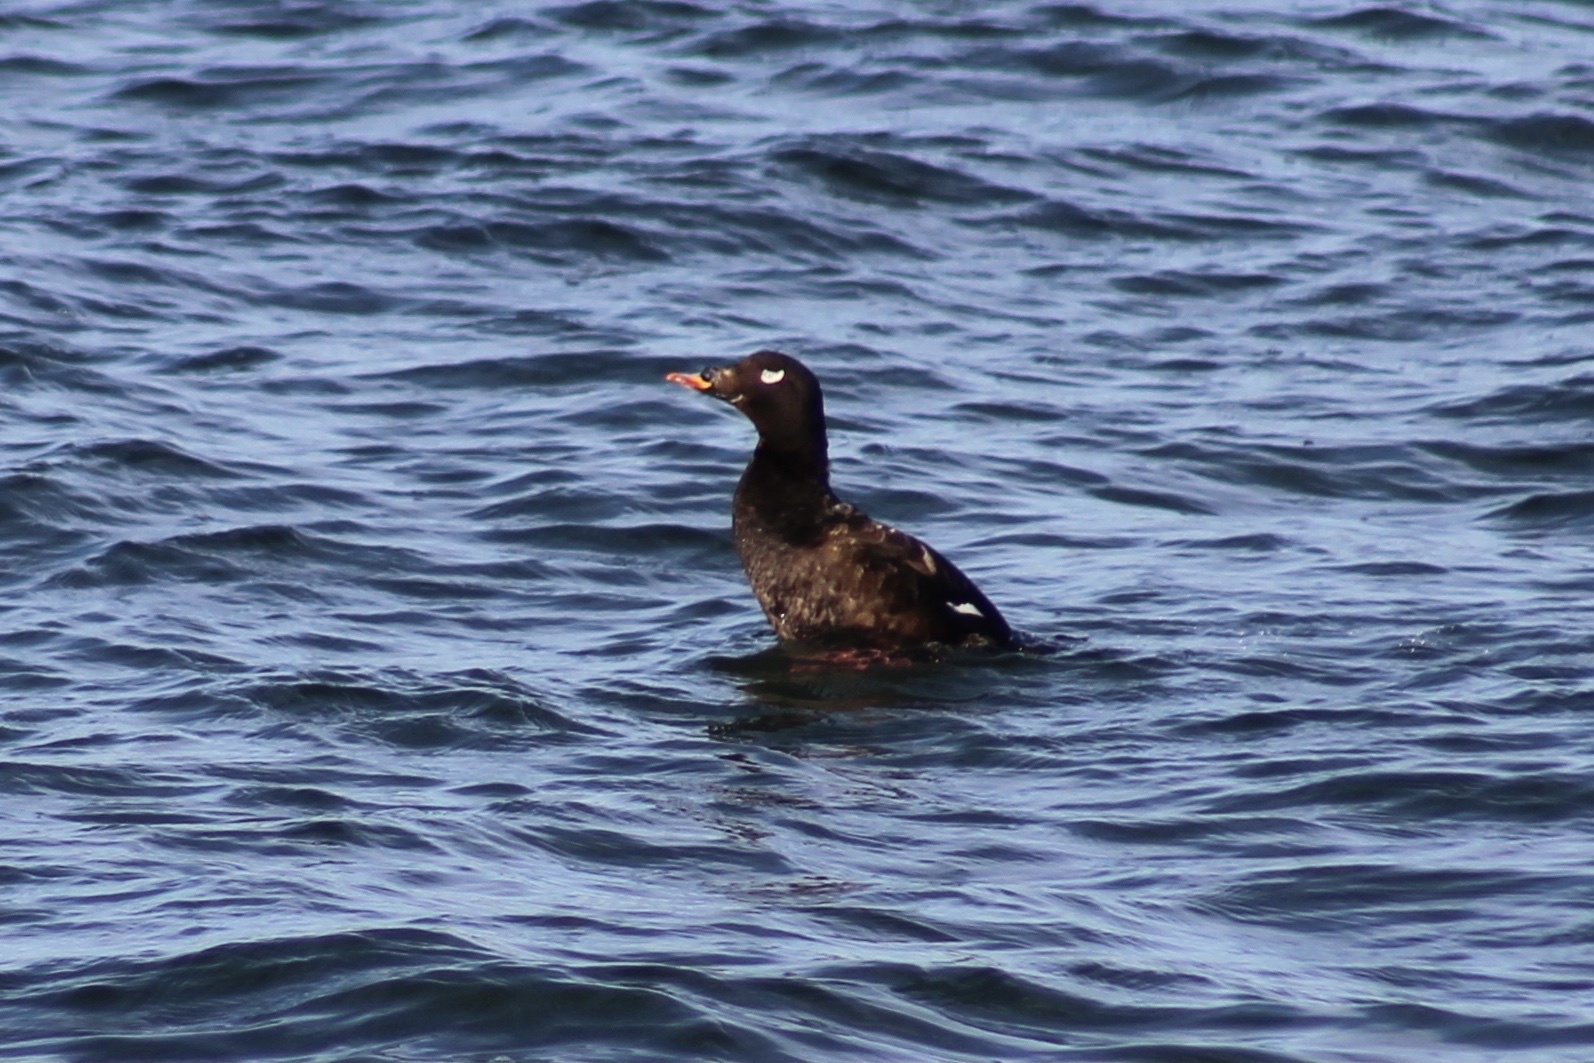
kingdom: Animalia
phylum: Chordata
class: Aves
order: Anseriformes
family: Anatidae
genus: Melanitta
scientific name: Melanitta deglandi
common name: White-winged scoter
